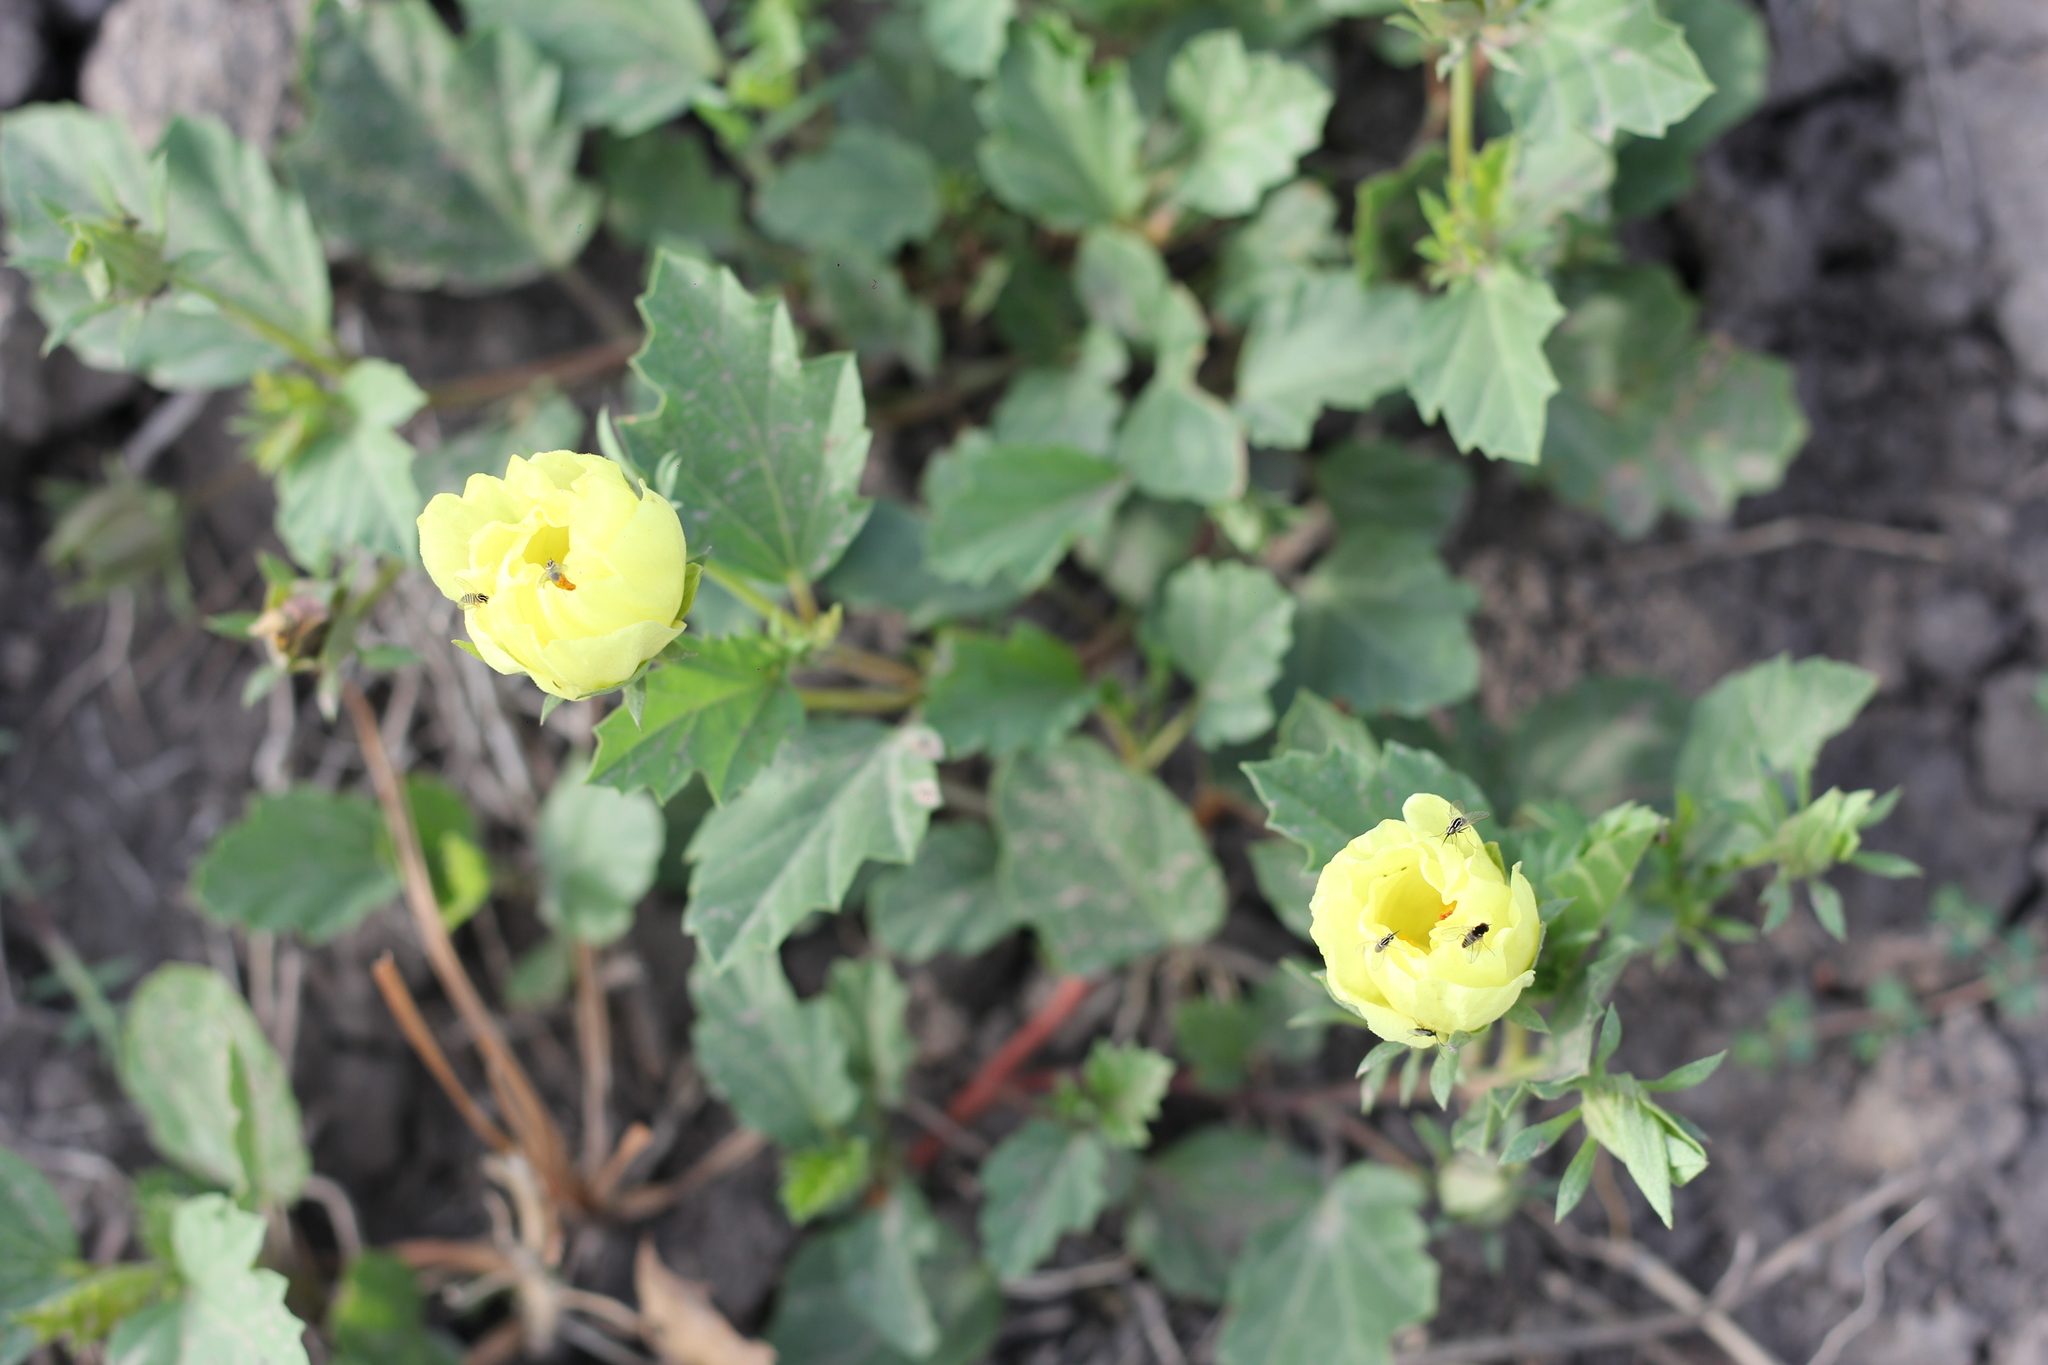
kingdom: Plantae
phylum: Tracheophyta
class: Magnoliopsida
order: Malvales
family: Malvaceae
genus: Cienfuegosia
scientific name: Cienfuegosia
